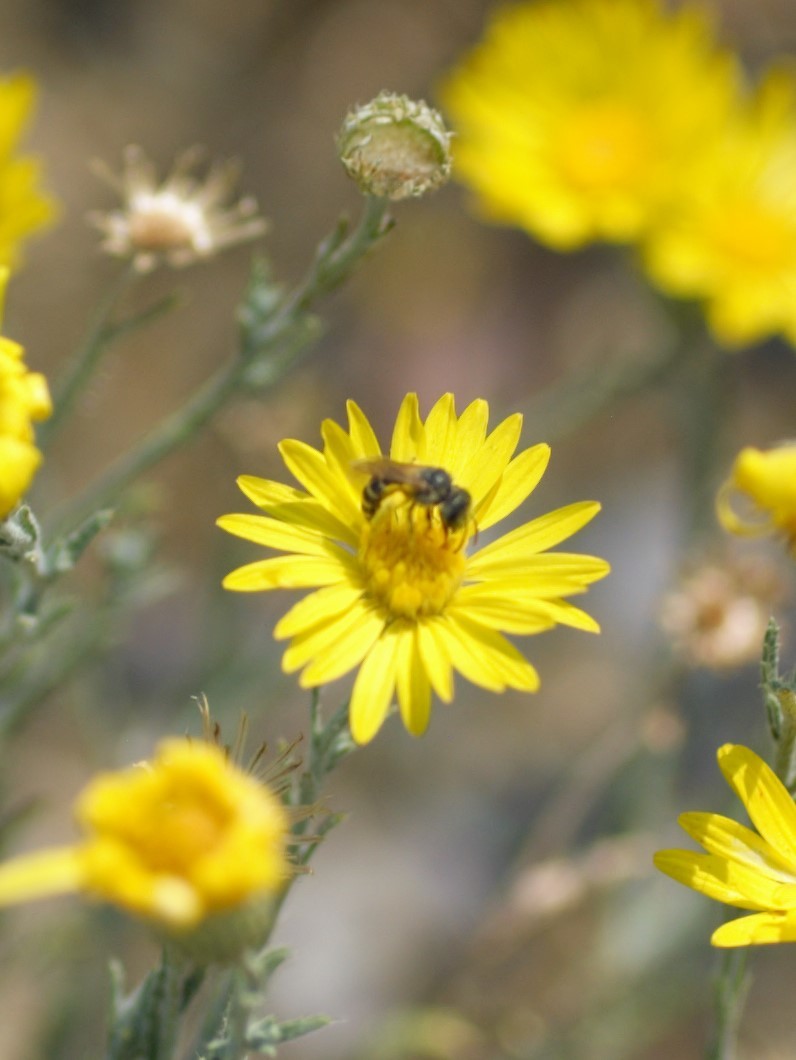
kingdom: Animalia
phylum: Arthropoda
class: Insecta
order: Hymenoptera
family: Halictidae
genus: Halictus
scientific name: Halictus ligatus
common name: Ligated furrow bee
